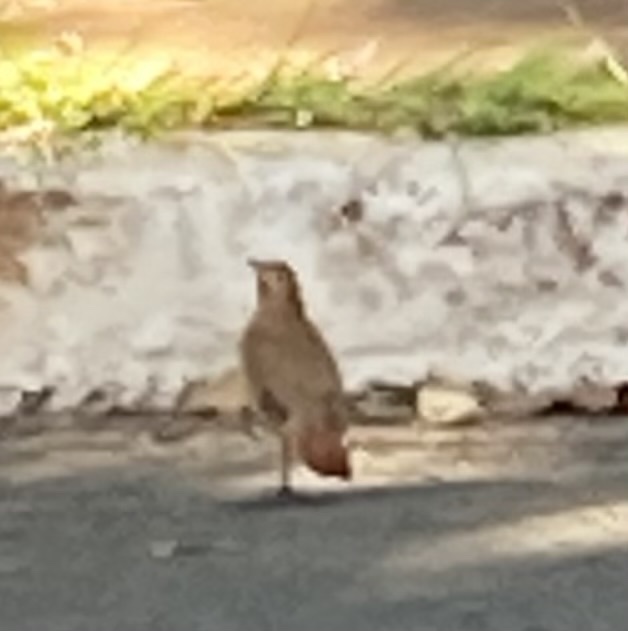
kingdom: Animalia
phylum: Chordata
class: Aves
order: Passeriformes
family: Furnariidae
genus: Furnarius
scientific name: Furnarius rufus
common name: Rufous hornero
